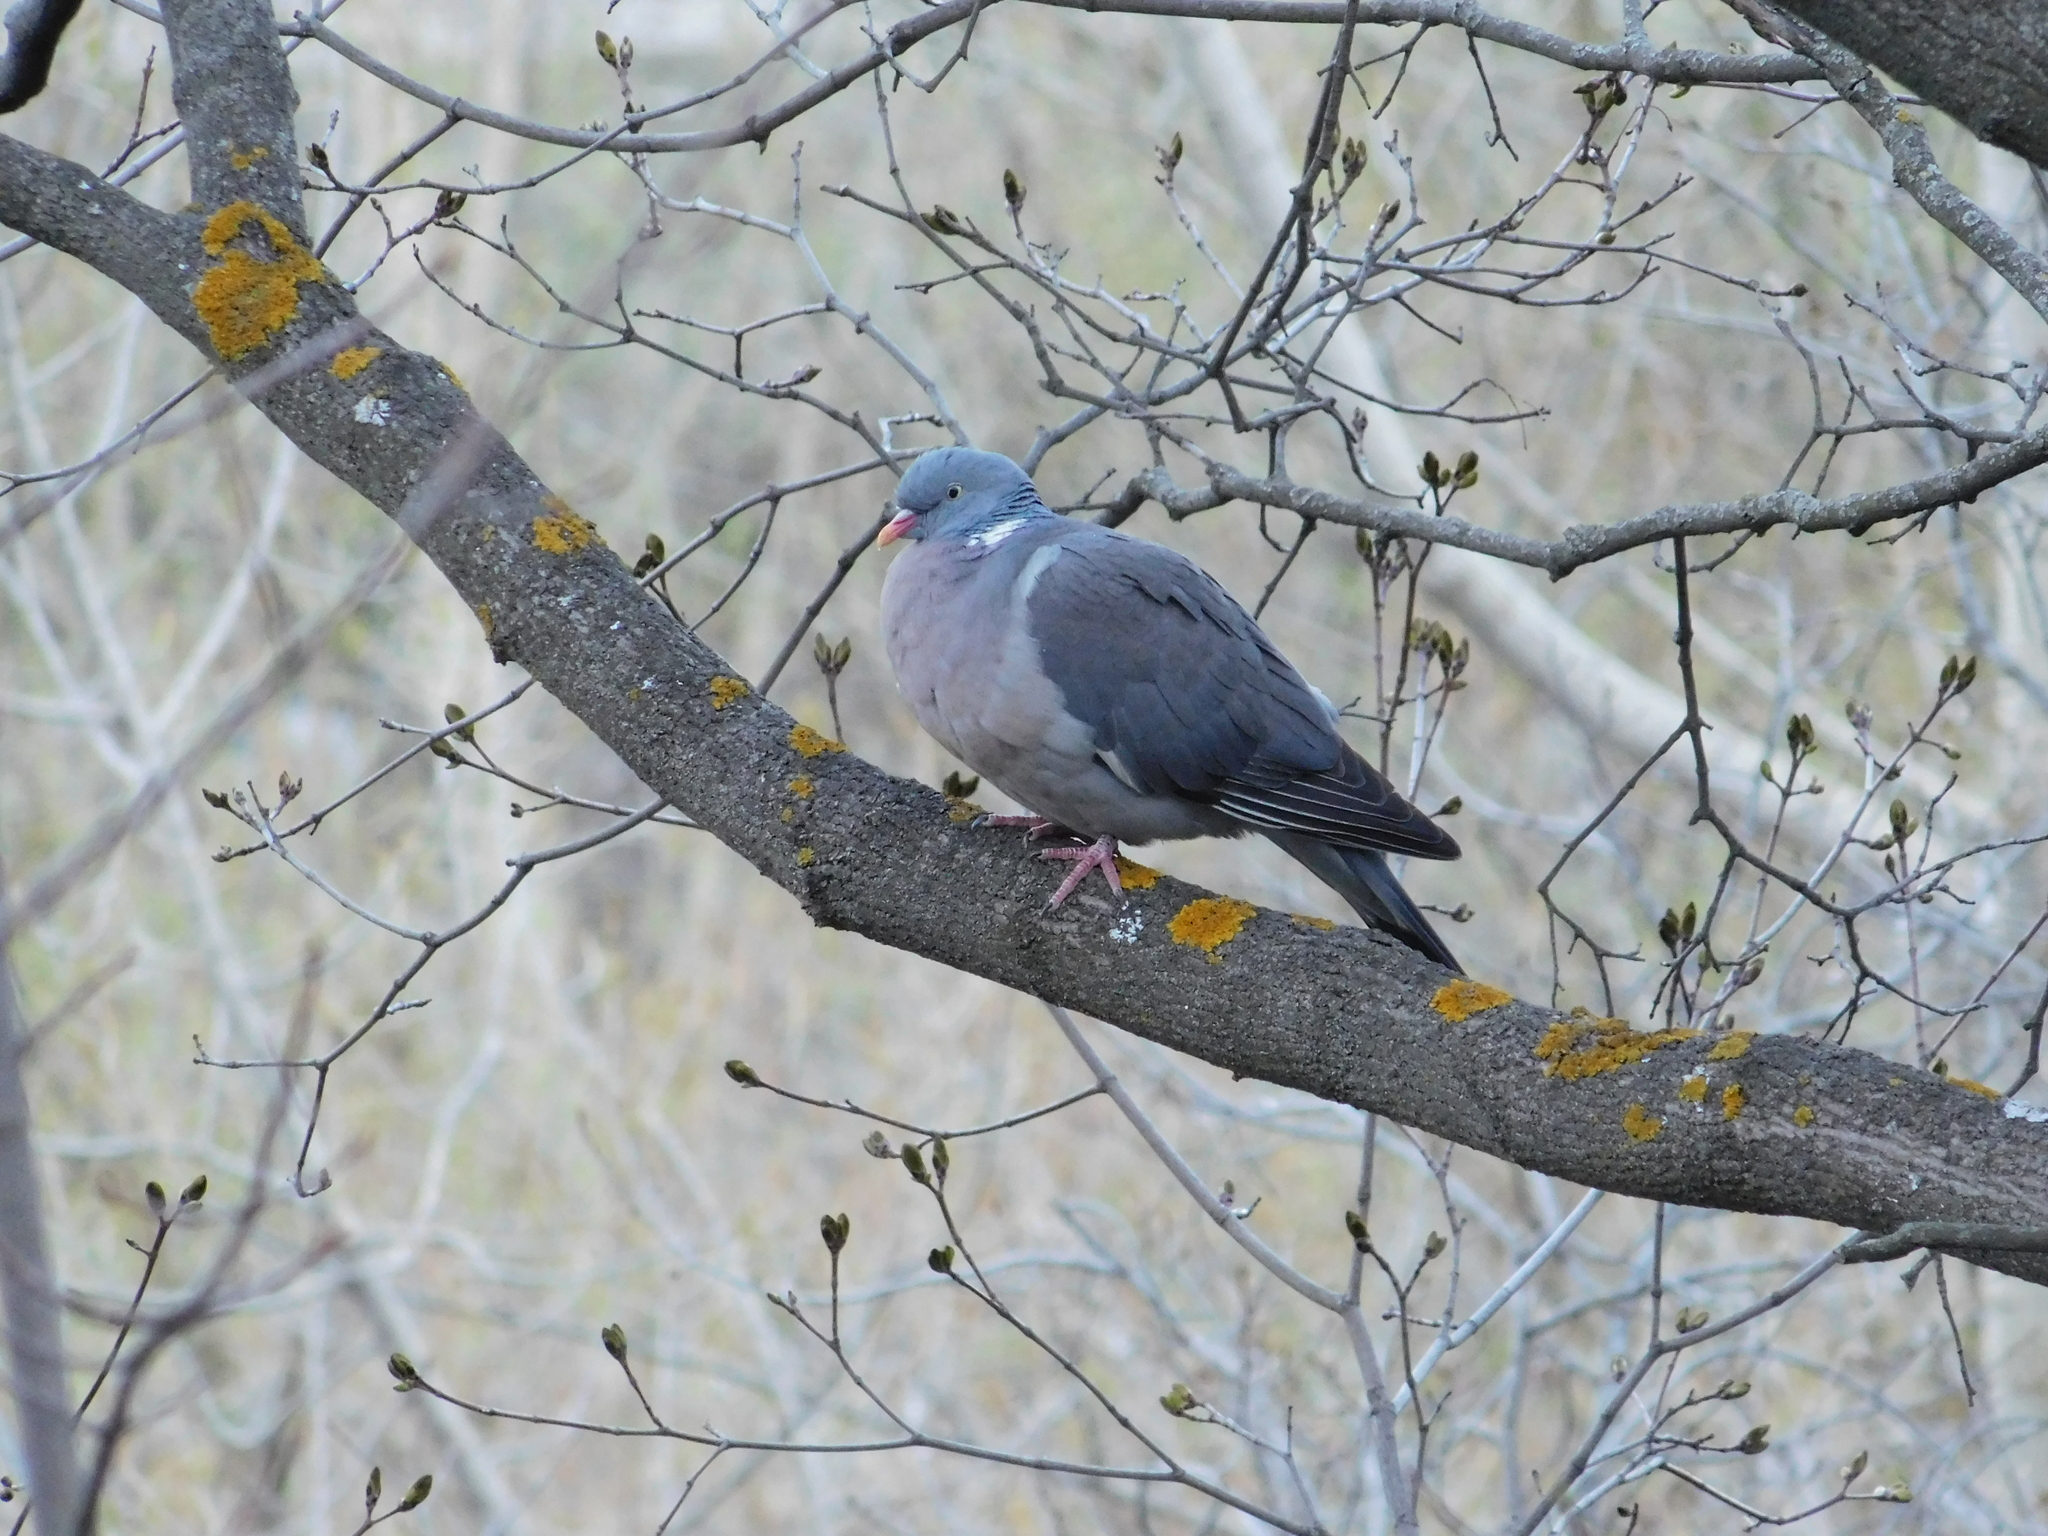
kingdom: Animalia
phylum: Chordata
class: Aves
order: Columbiformes
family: Columbidae
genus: Columba
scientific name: Columba palumbus
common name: Common wood pigeon
